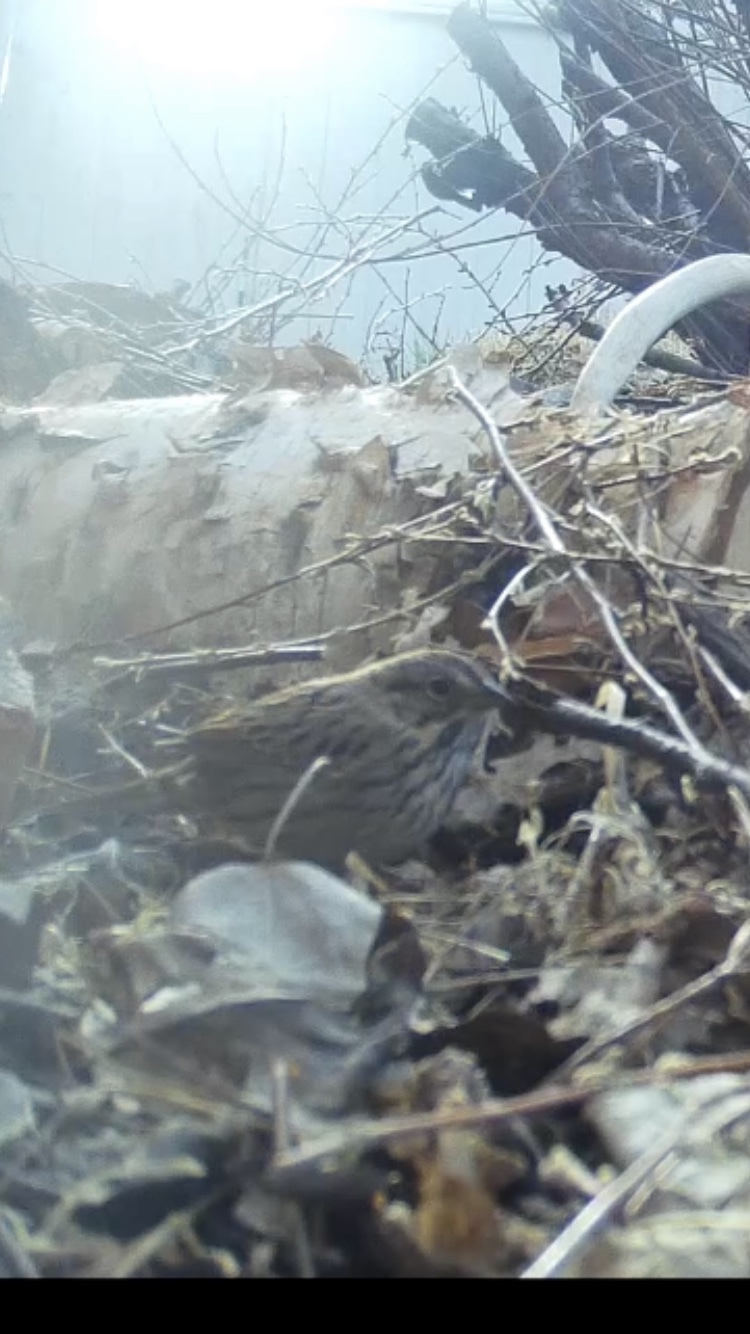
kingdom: Animalia
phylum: Chordata
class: Aves
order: Passeriformes
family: Passerellidae
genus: Melospiza
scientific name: Melospiza lincolnii
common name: Lincoln's sparrow
